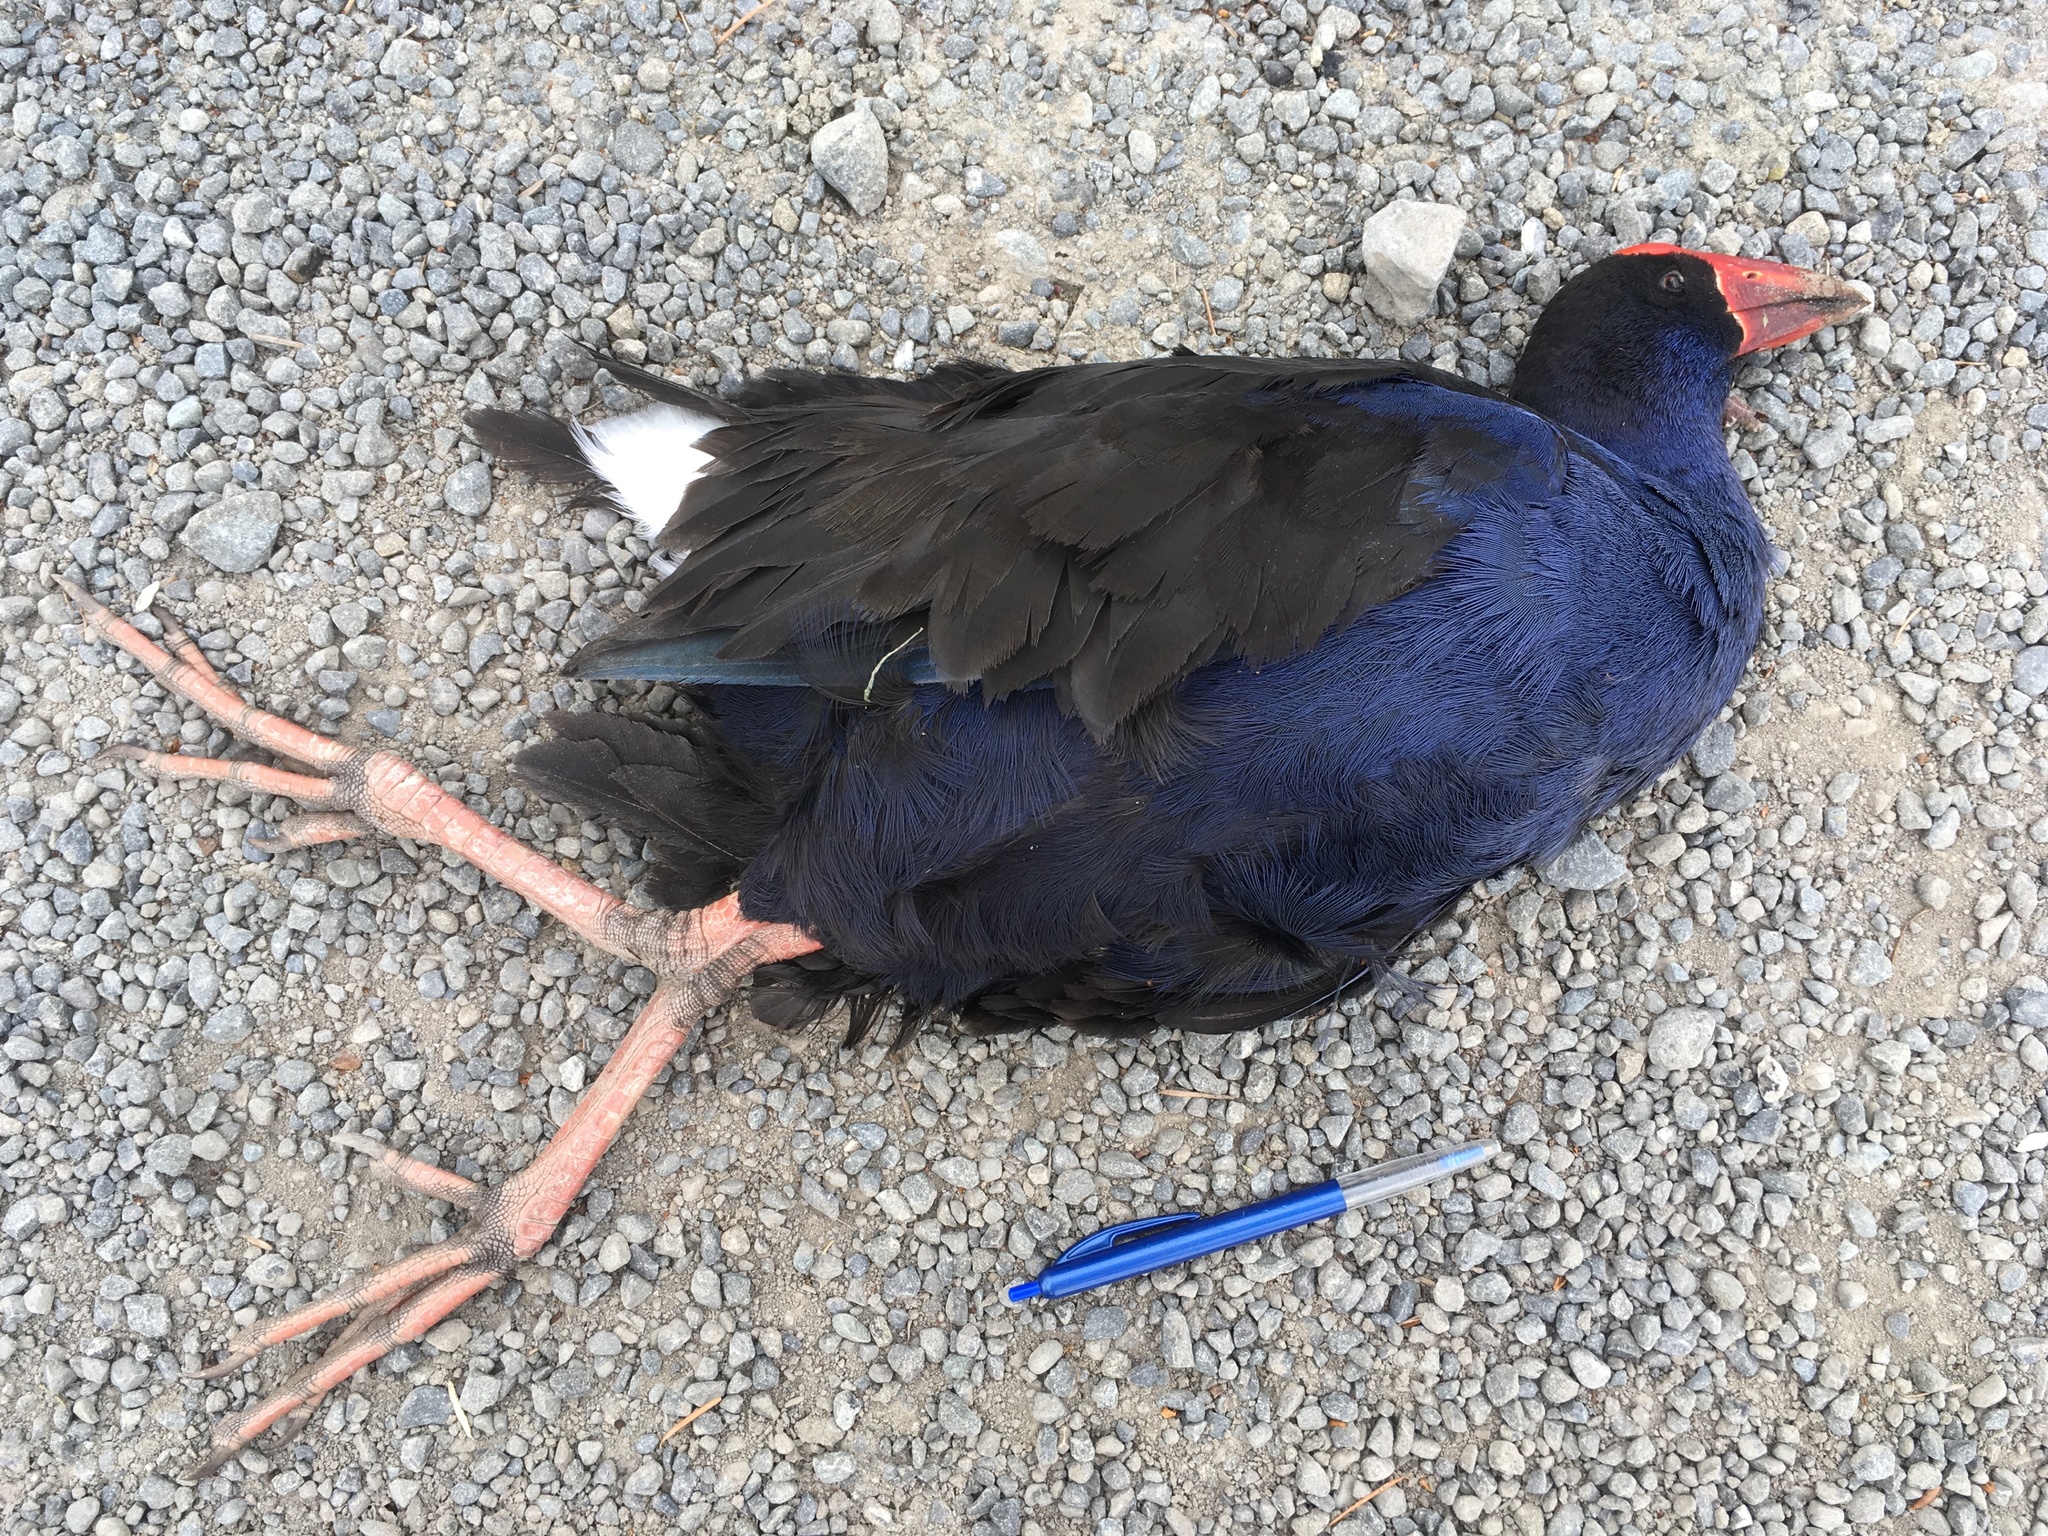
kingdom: Animalia
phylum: Chordata
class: Aves
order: Gruiformes
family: Rallidae
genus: Porphyrio
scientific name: Porphyrio melanotus
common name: Australasian swamphen
